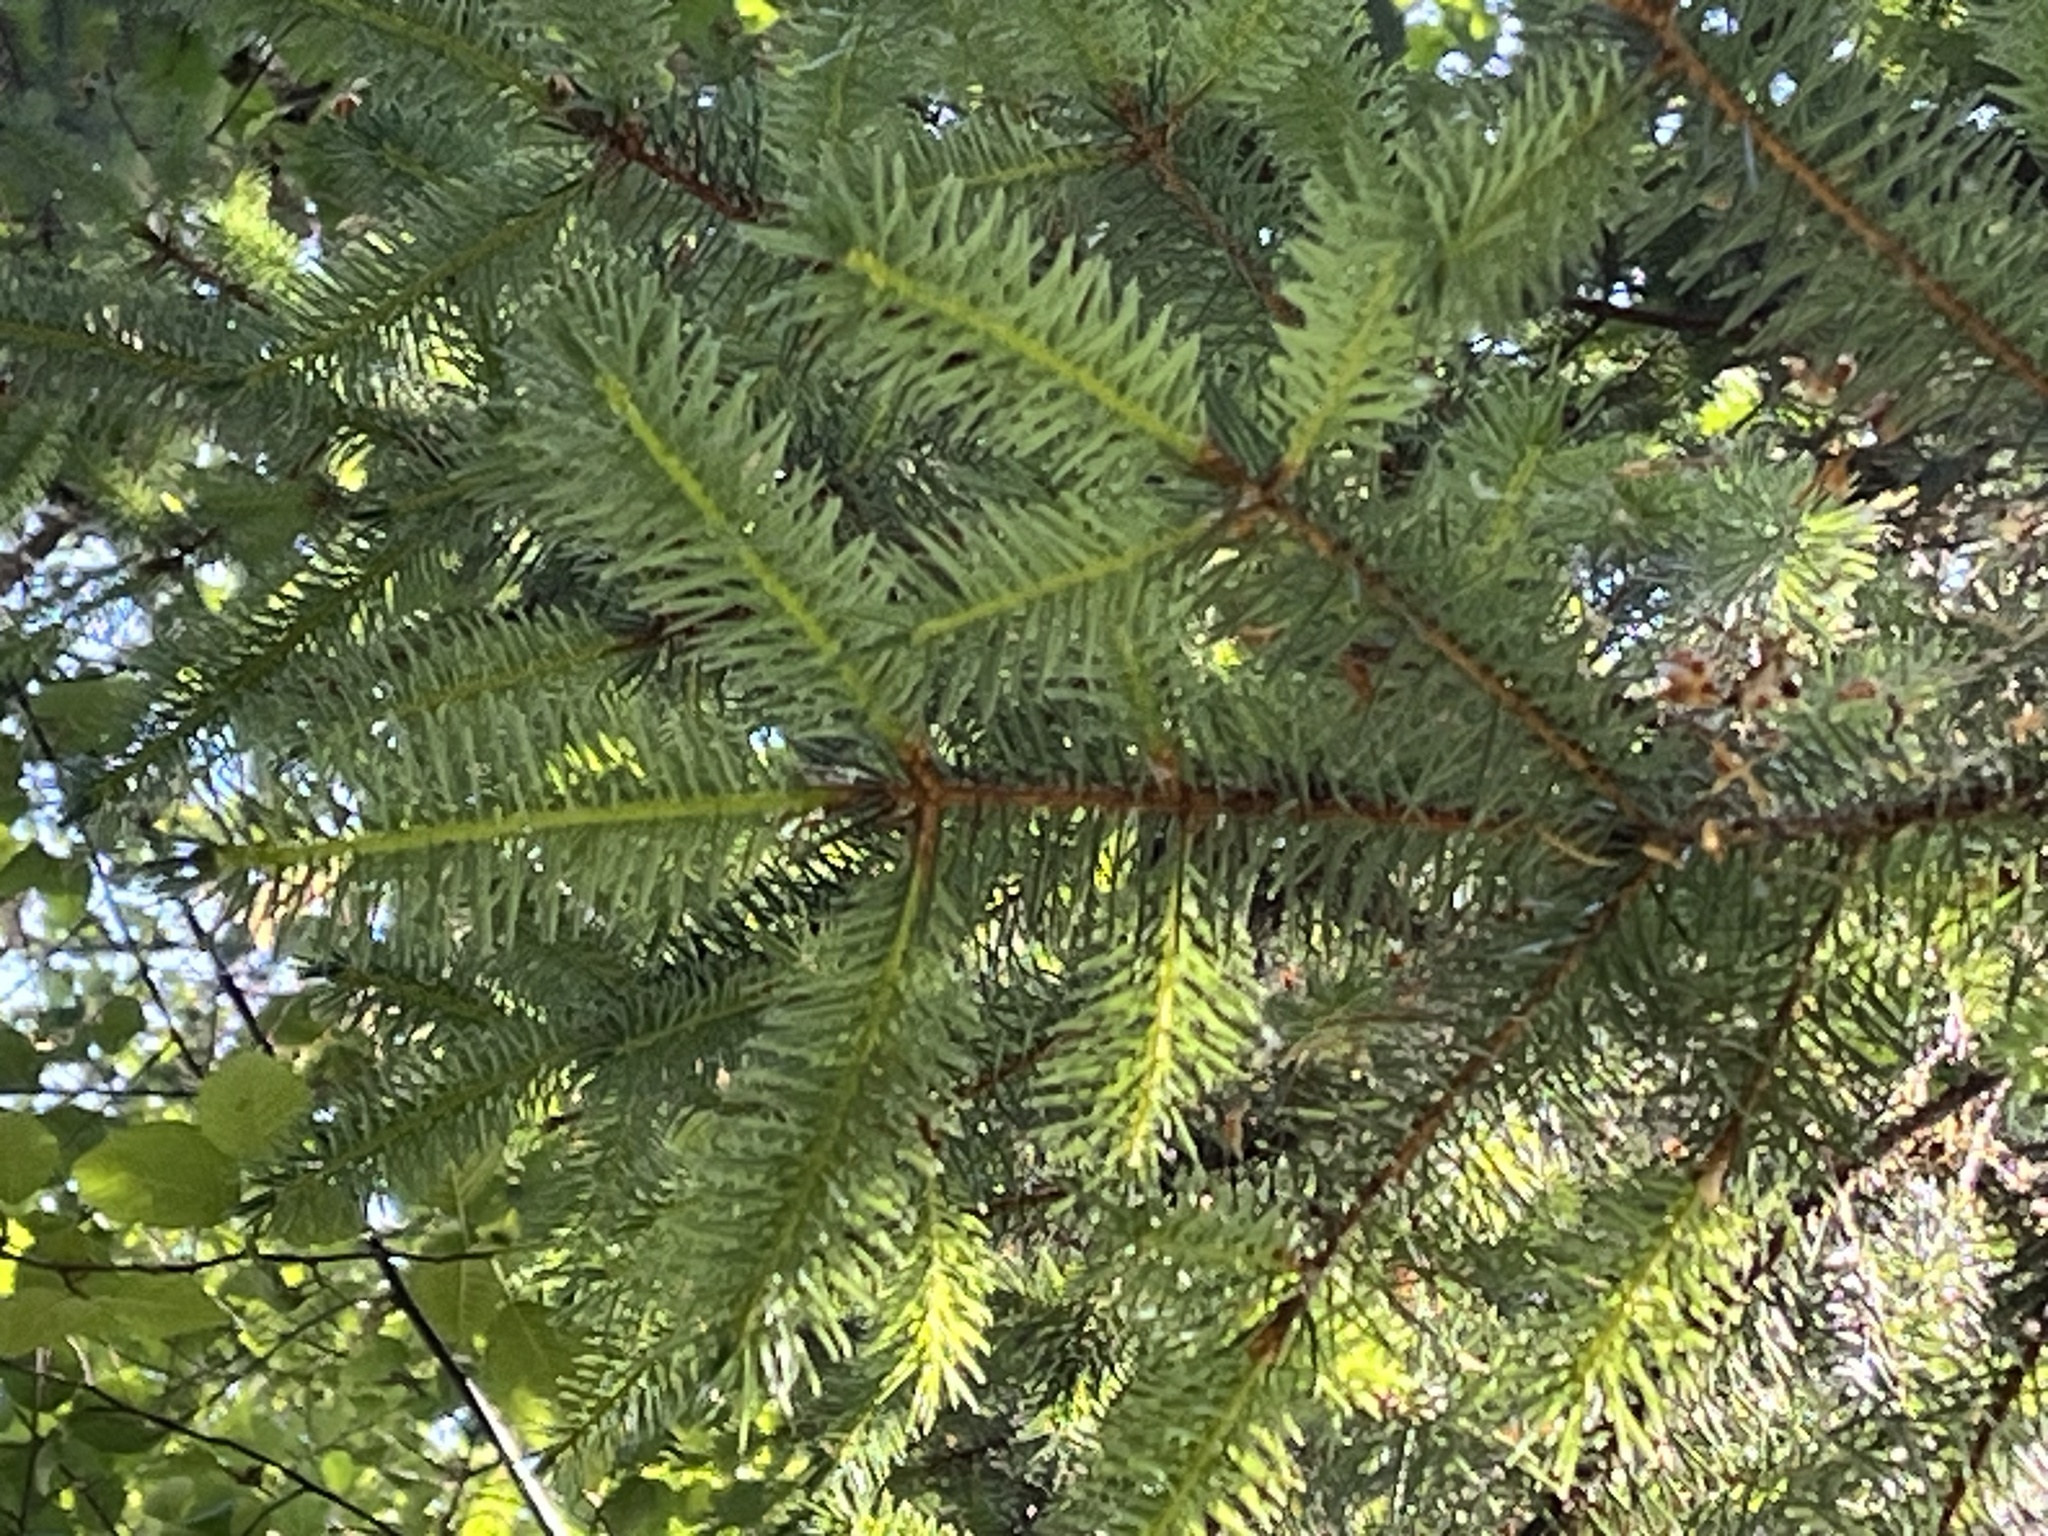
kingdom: Plantae
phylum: Tracheophyta
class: Pinopsida
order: Pinales
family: Pinaceae
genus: Picea
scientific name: Picea sitchensis
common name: Sitka spruce
